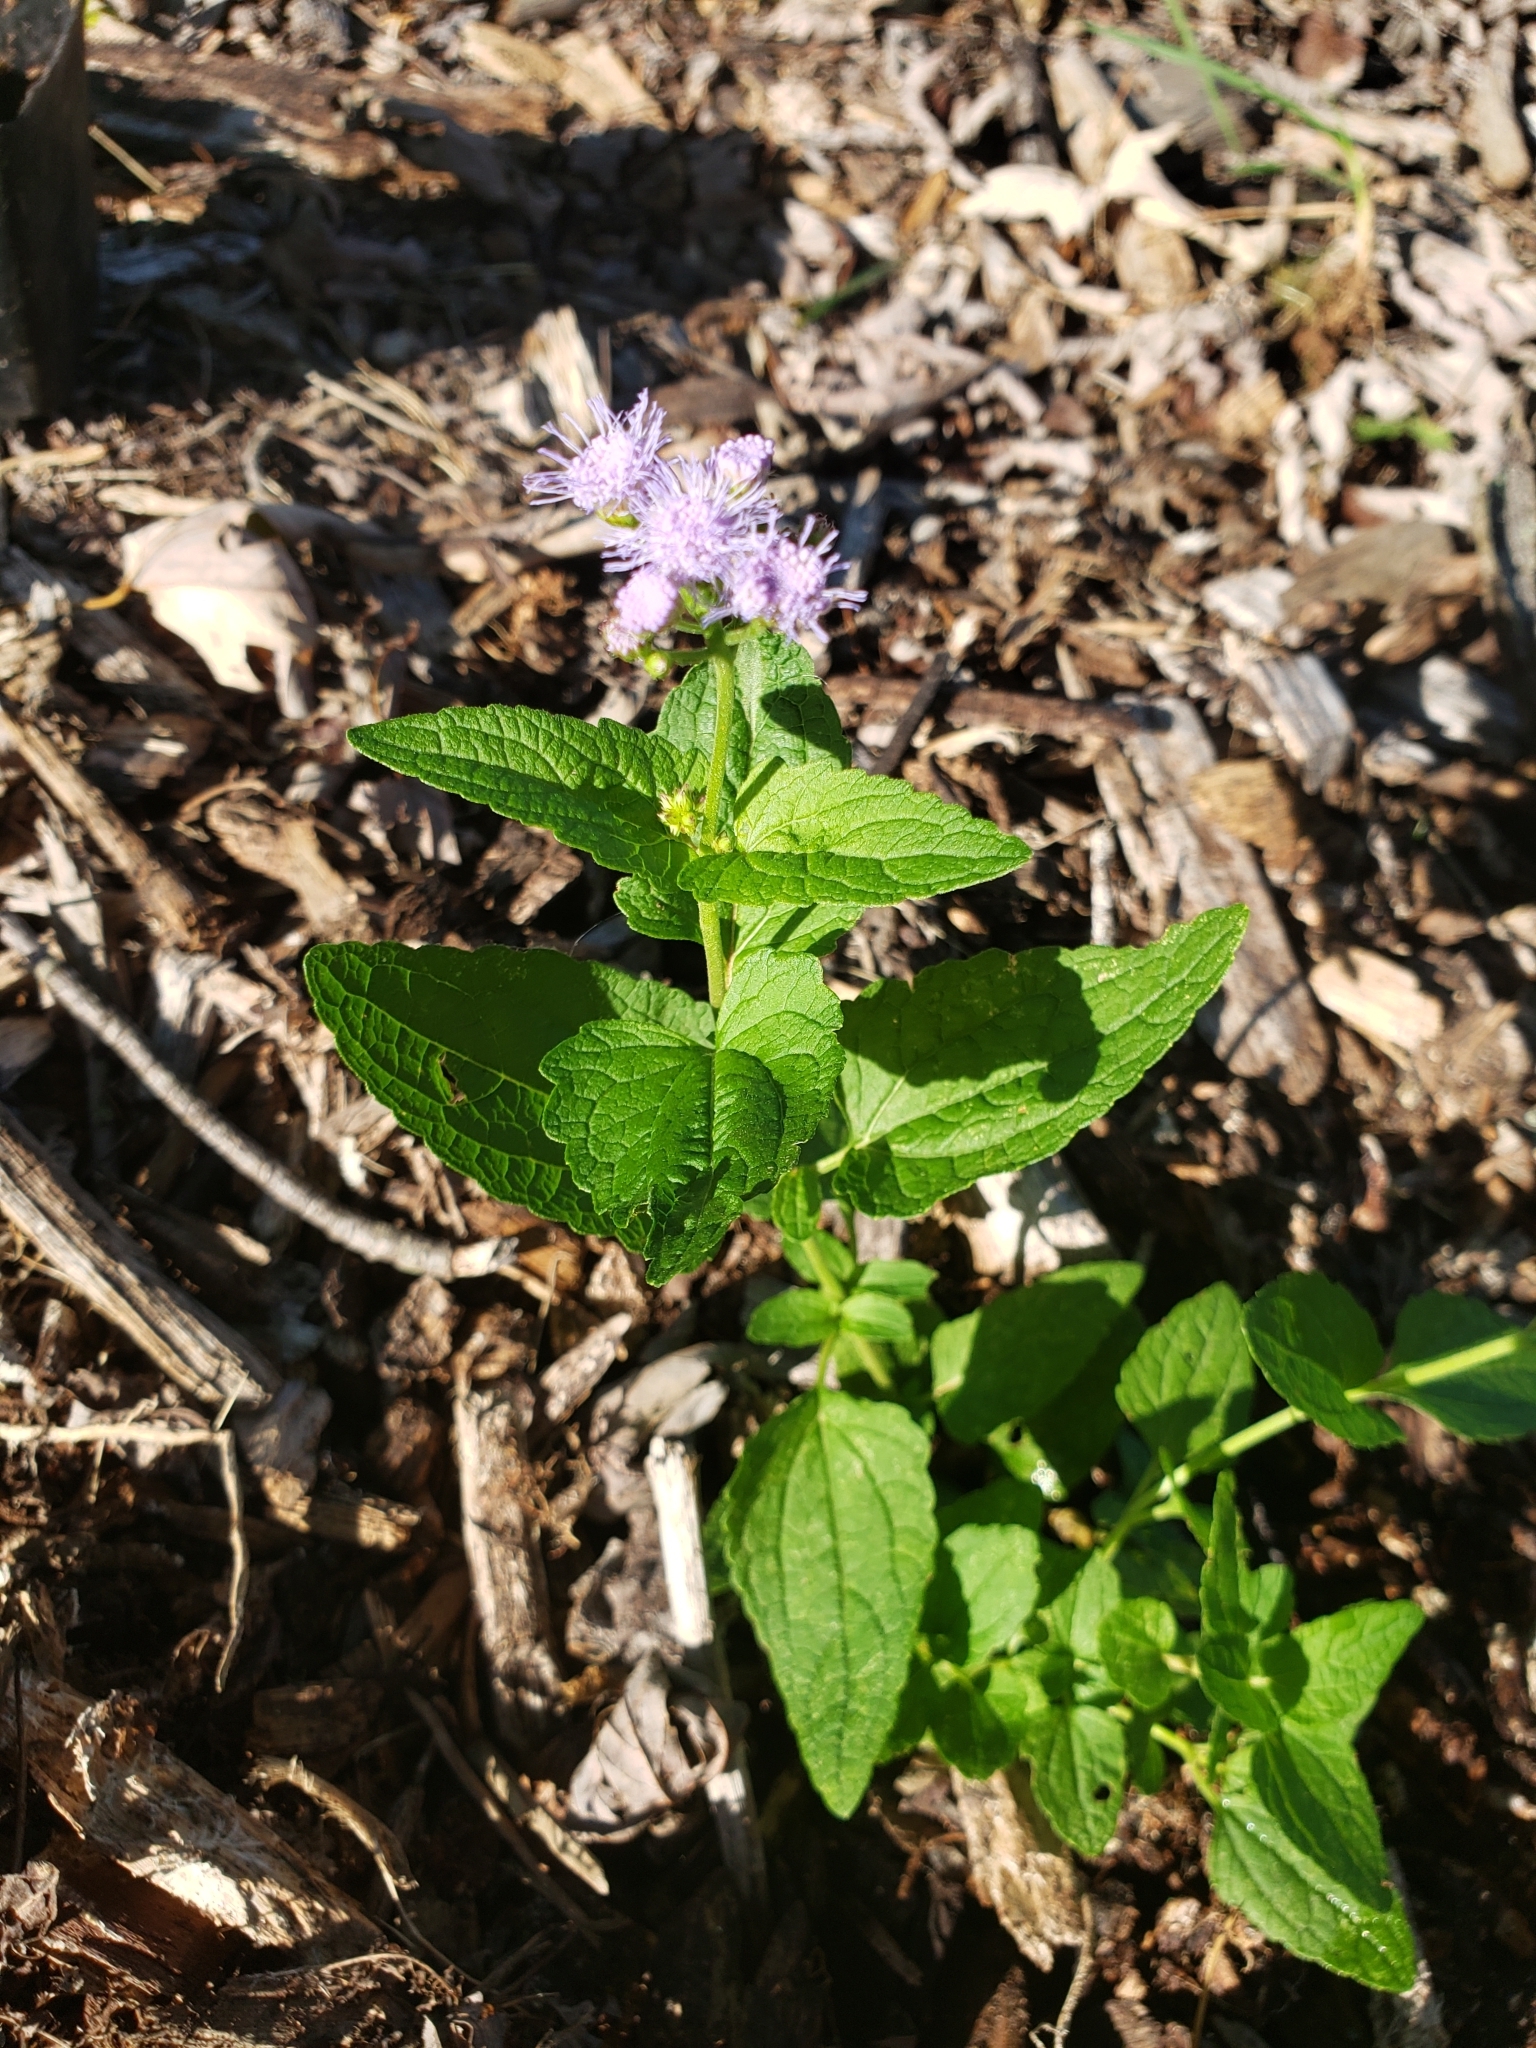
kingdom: Plantae
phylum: Tracheophyta
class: Magnoliopsida
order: Asterales
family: Asteraceae
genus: Conoclinium
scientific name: Conoclinium coelestinum
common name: Blue mistflower
